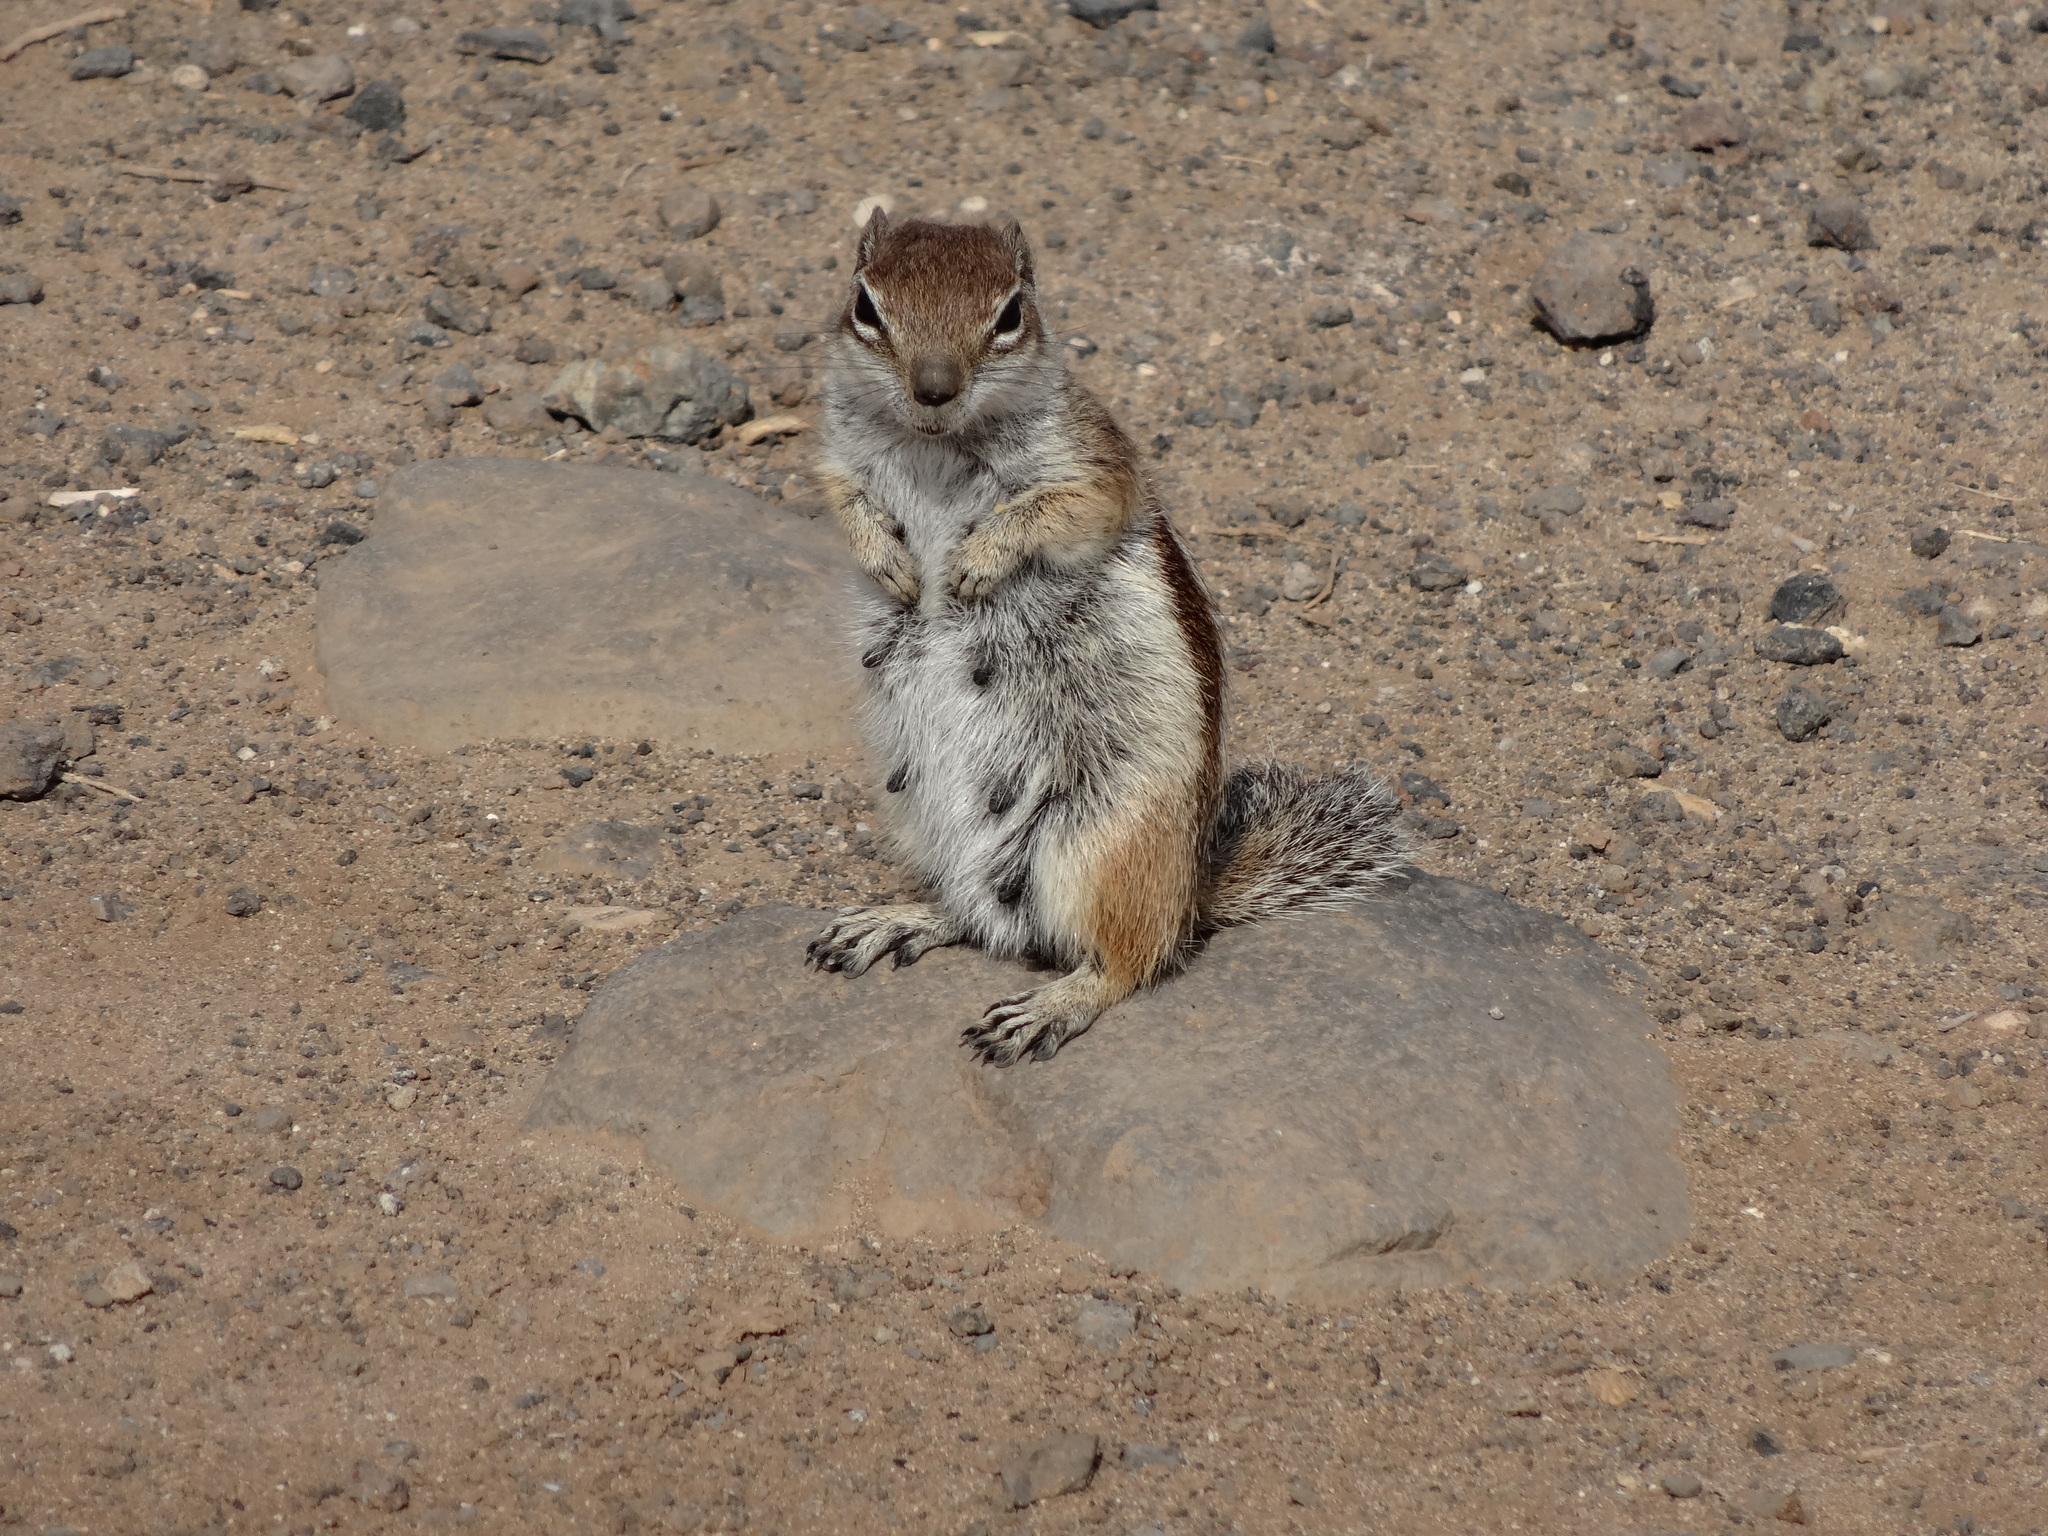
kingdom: Animalia
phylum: Chordata
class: Mammalia
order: Rodentia
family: Sciuridae
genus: Atlantoxerus
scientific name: Atlantoxerus getulus
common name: Barbary ground squirrel
